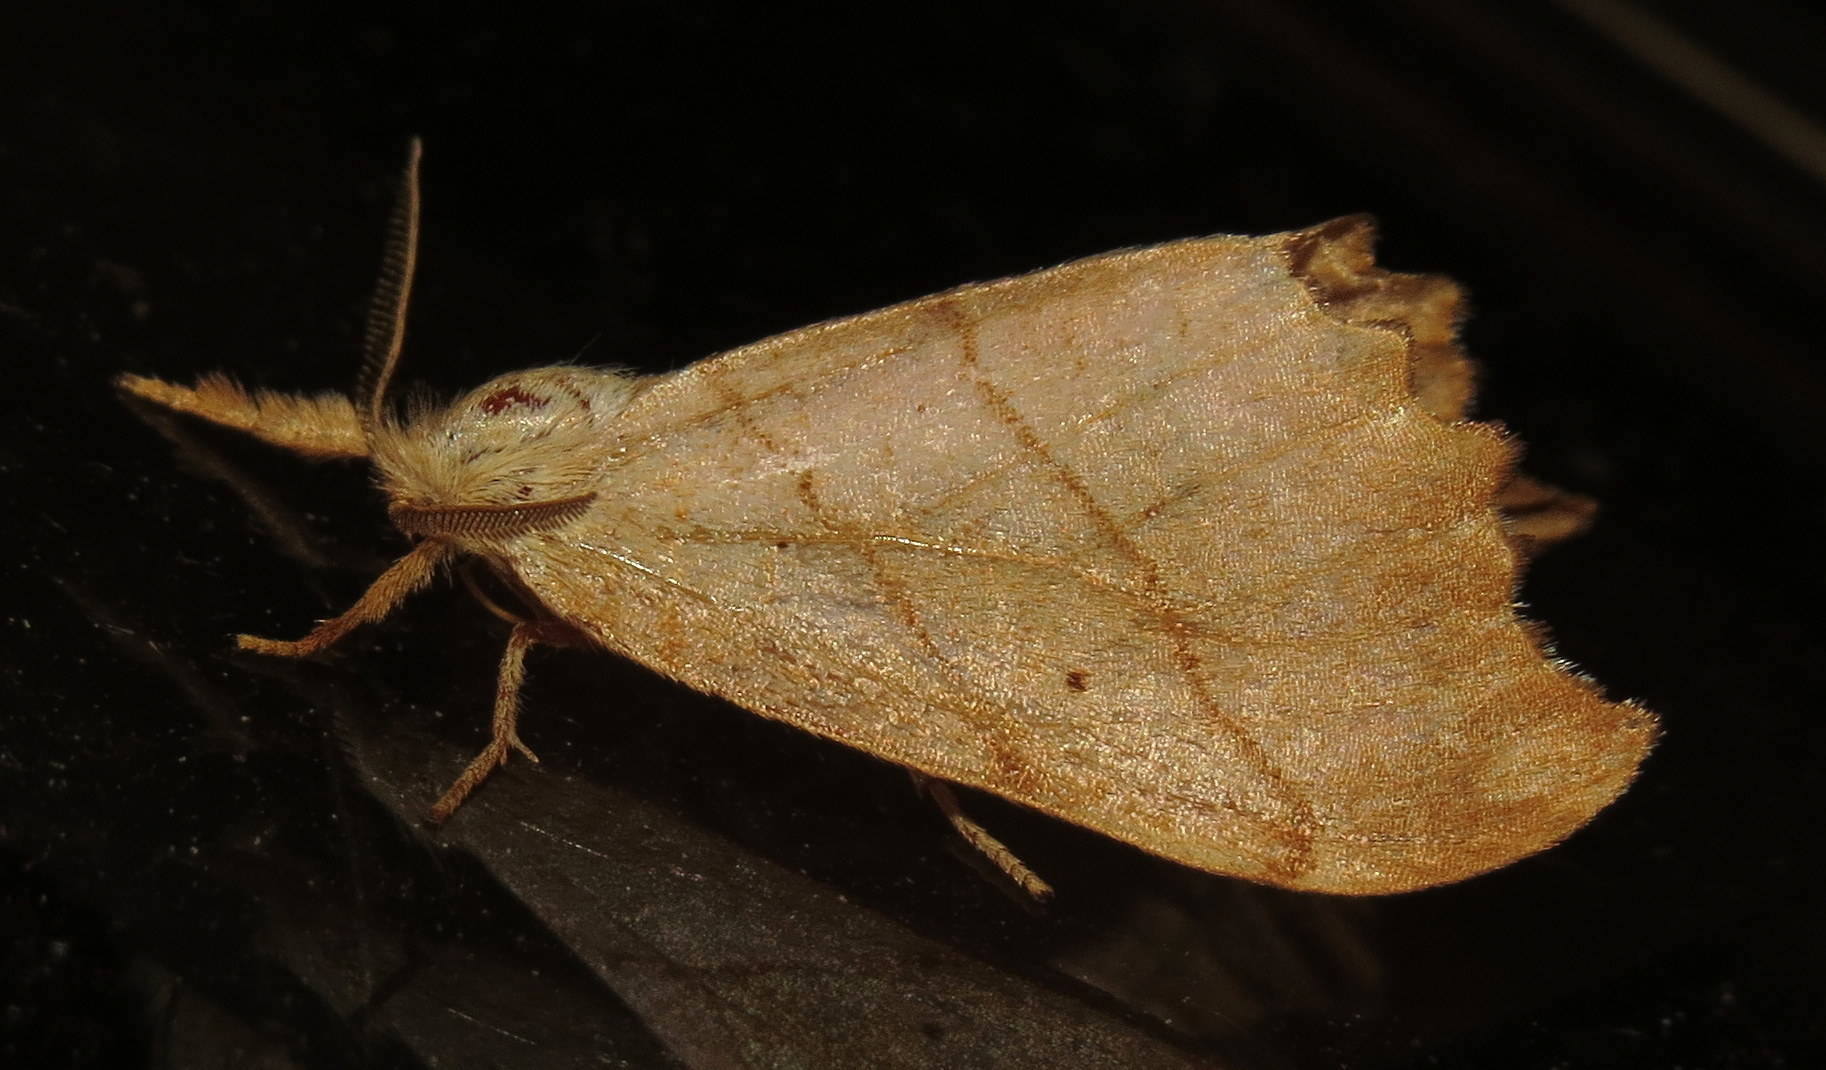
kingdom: Animalia
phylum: Arthropoda
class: Insecta
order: Lepidoptera
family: Drepanidae
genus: Falcaria
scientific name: Falcaria bilineata
